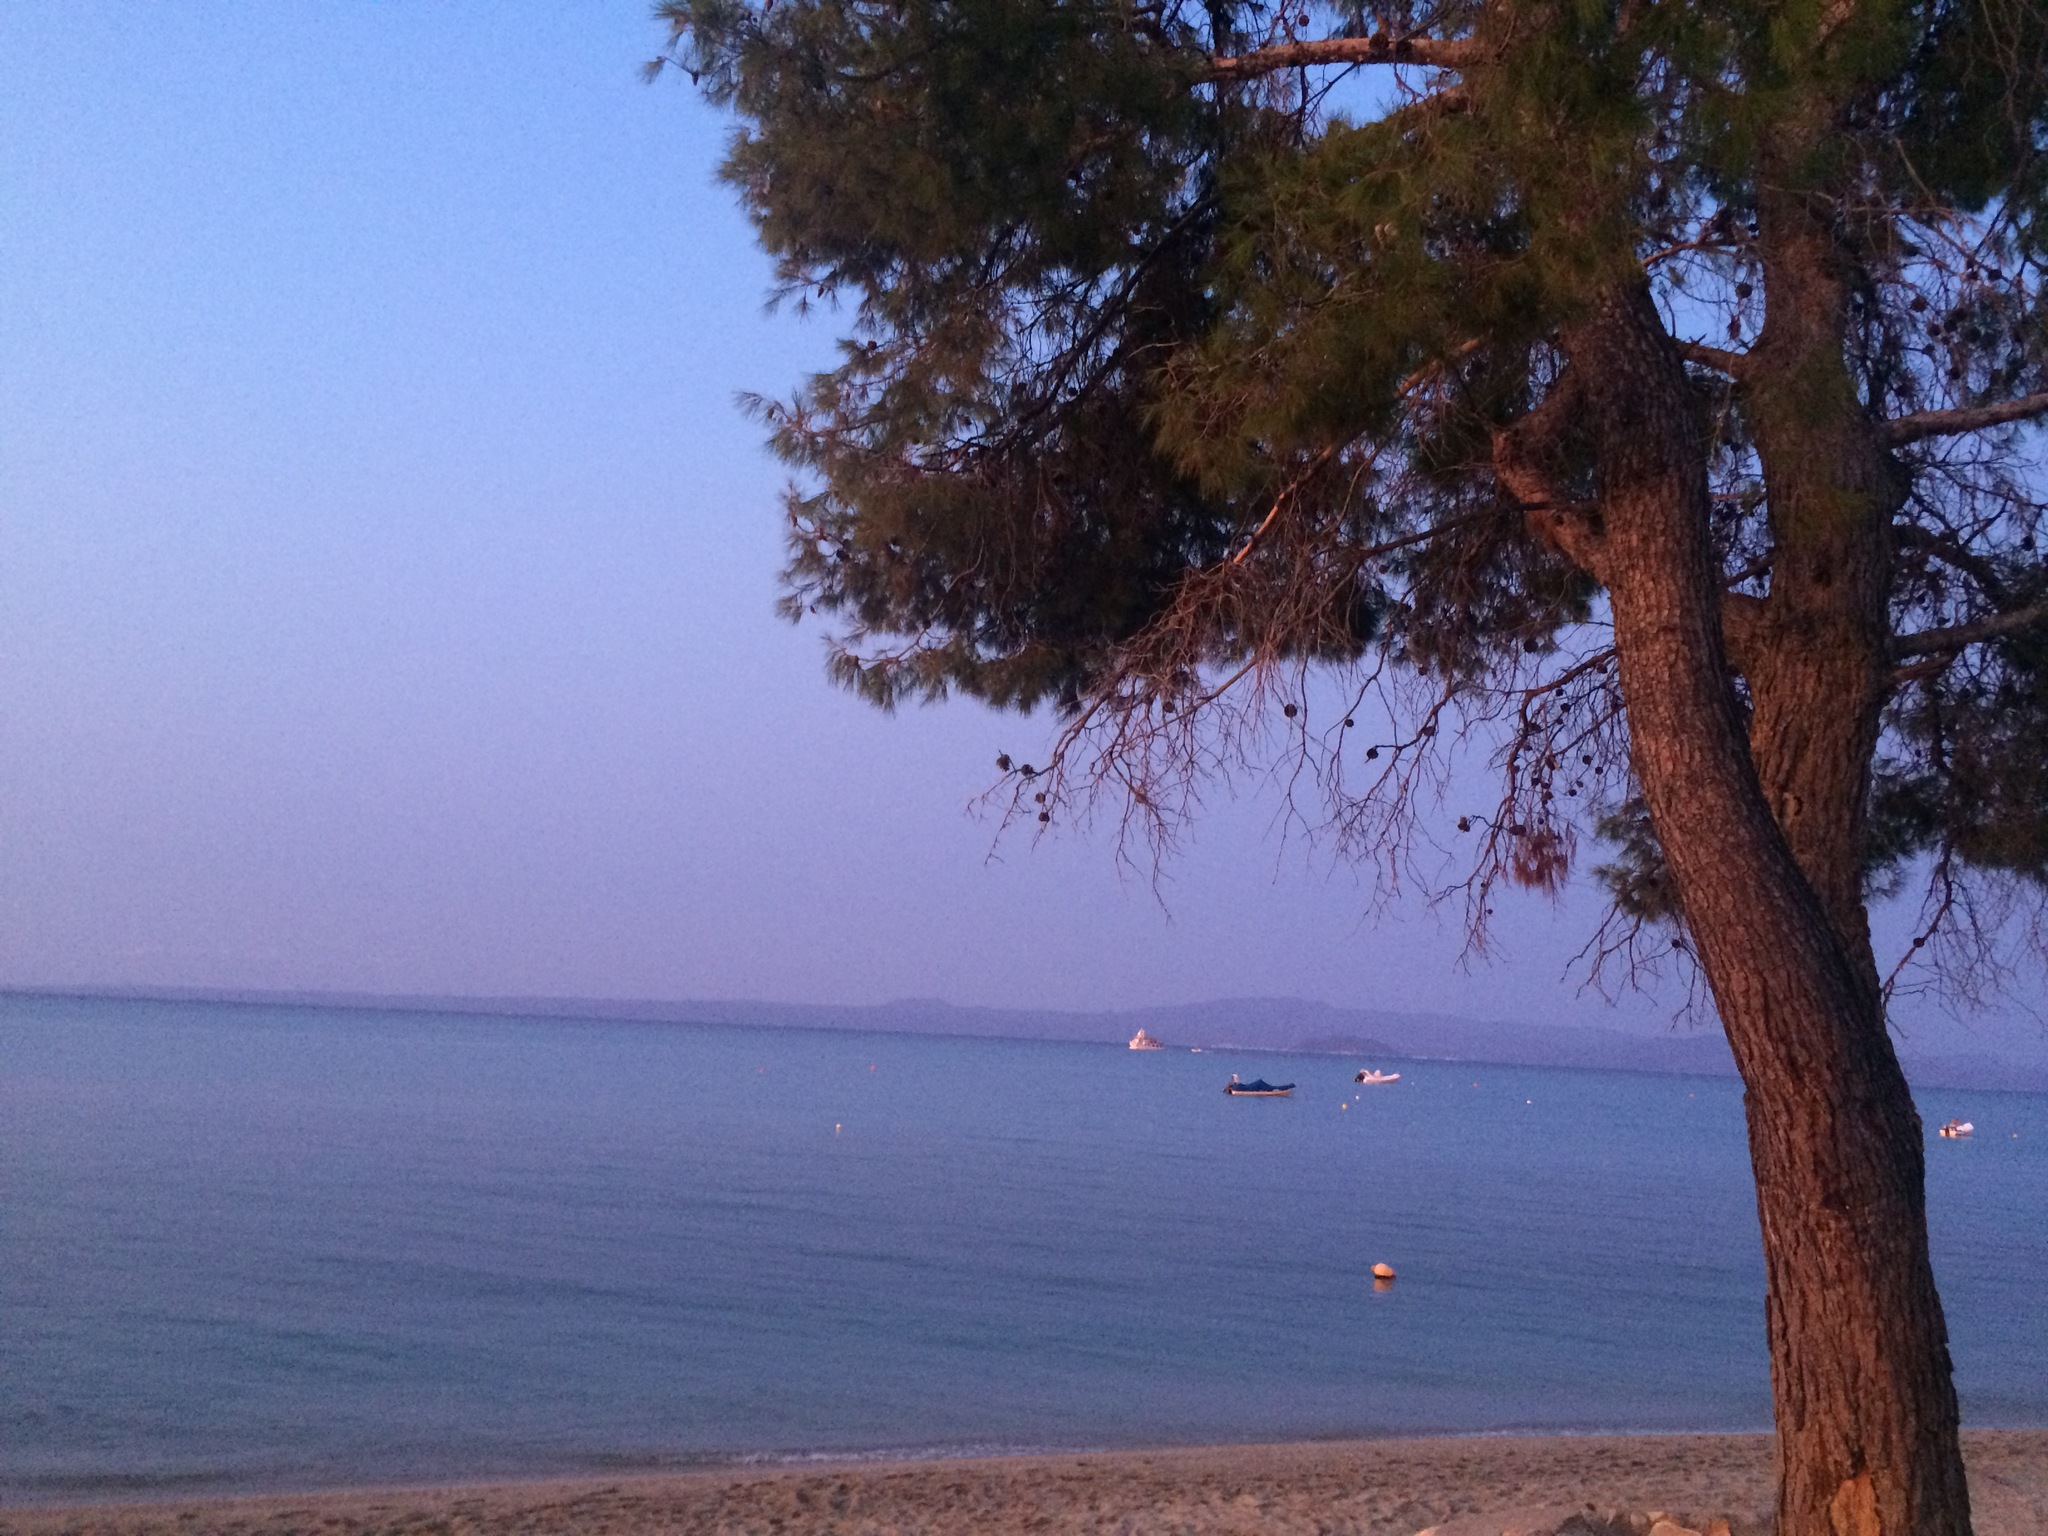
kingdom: Plantae
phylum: Tracheophyta
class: Pinopsida
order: Pinales
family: Pinaceae
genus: Pinus
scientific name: Pinus halepensis
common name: Aleppo pine
